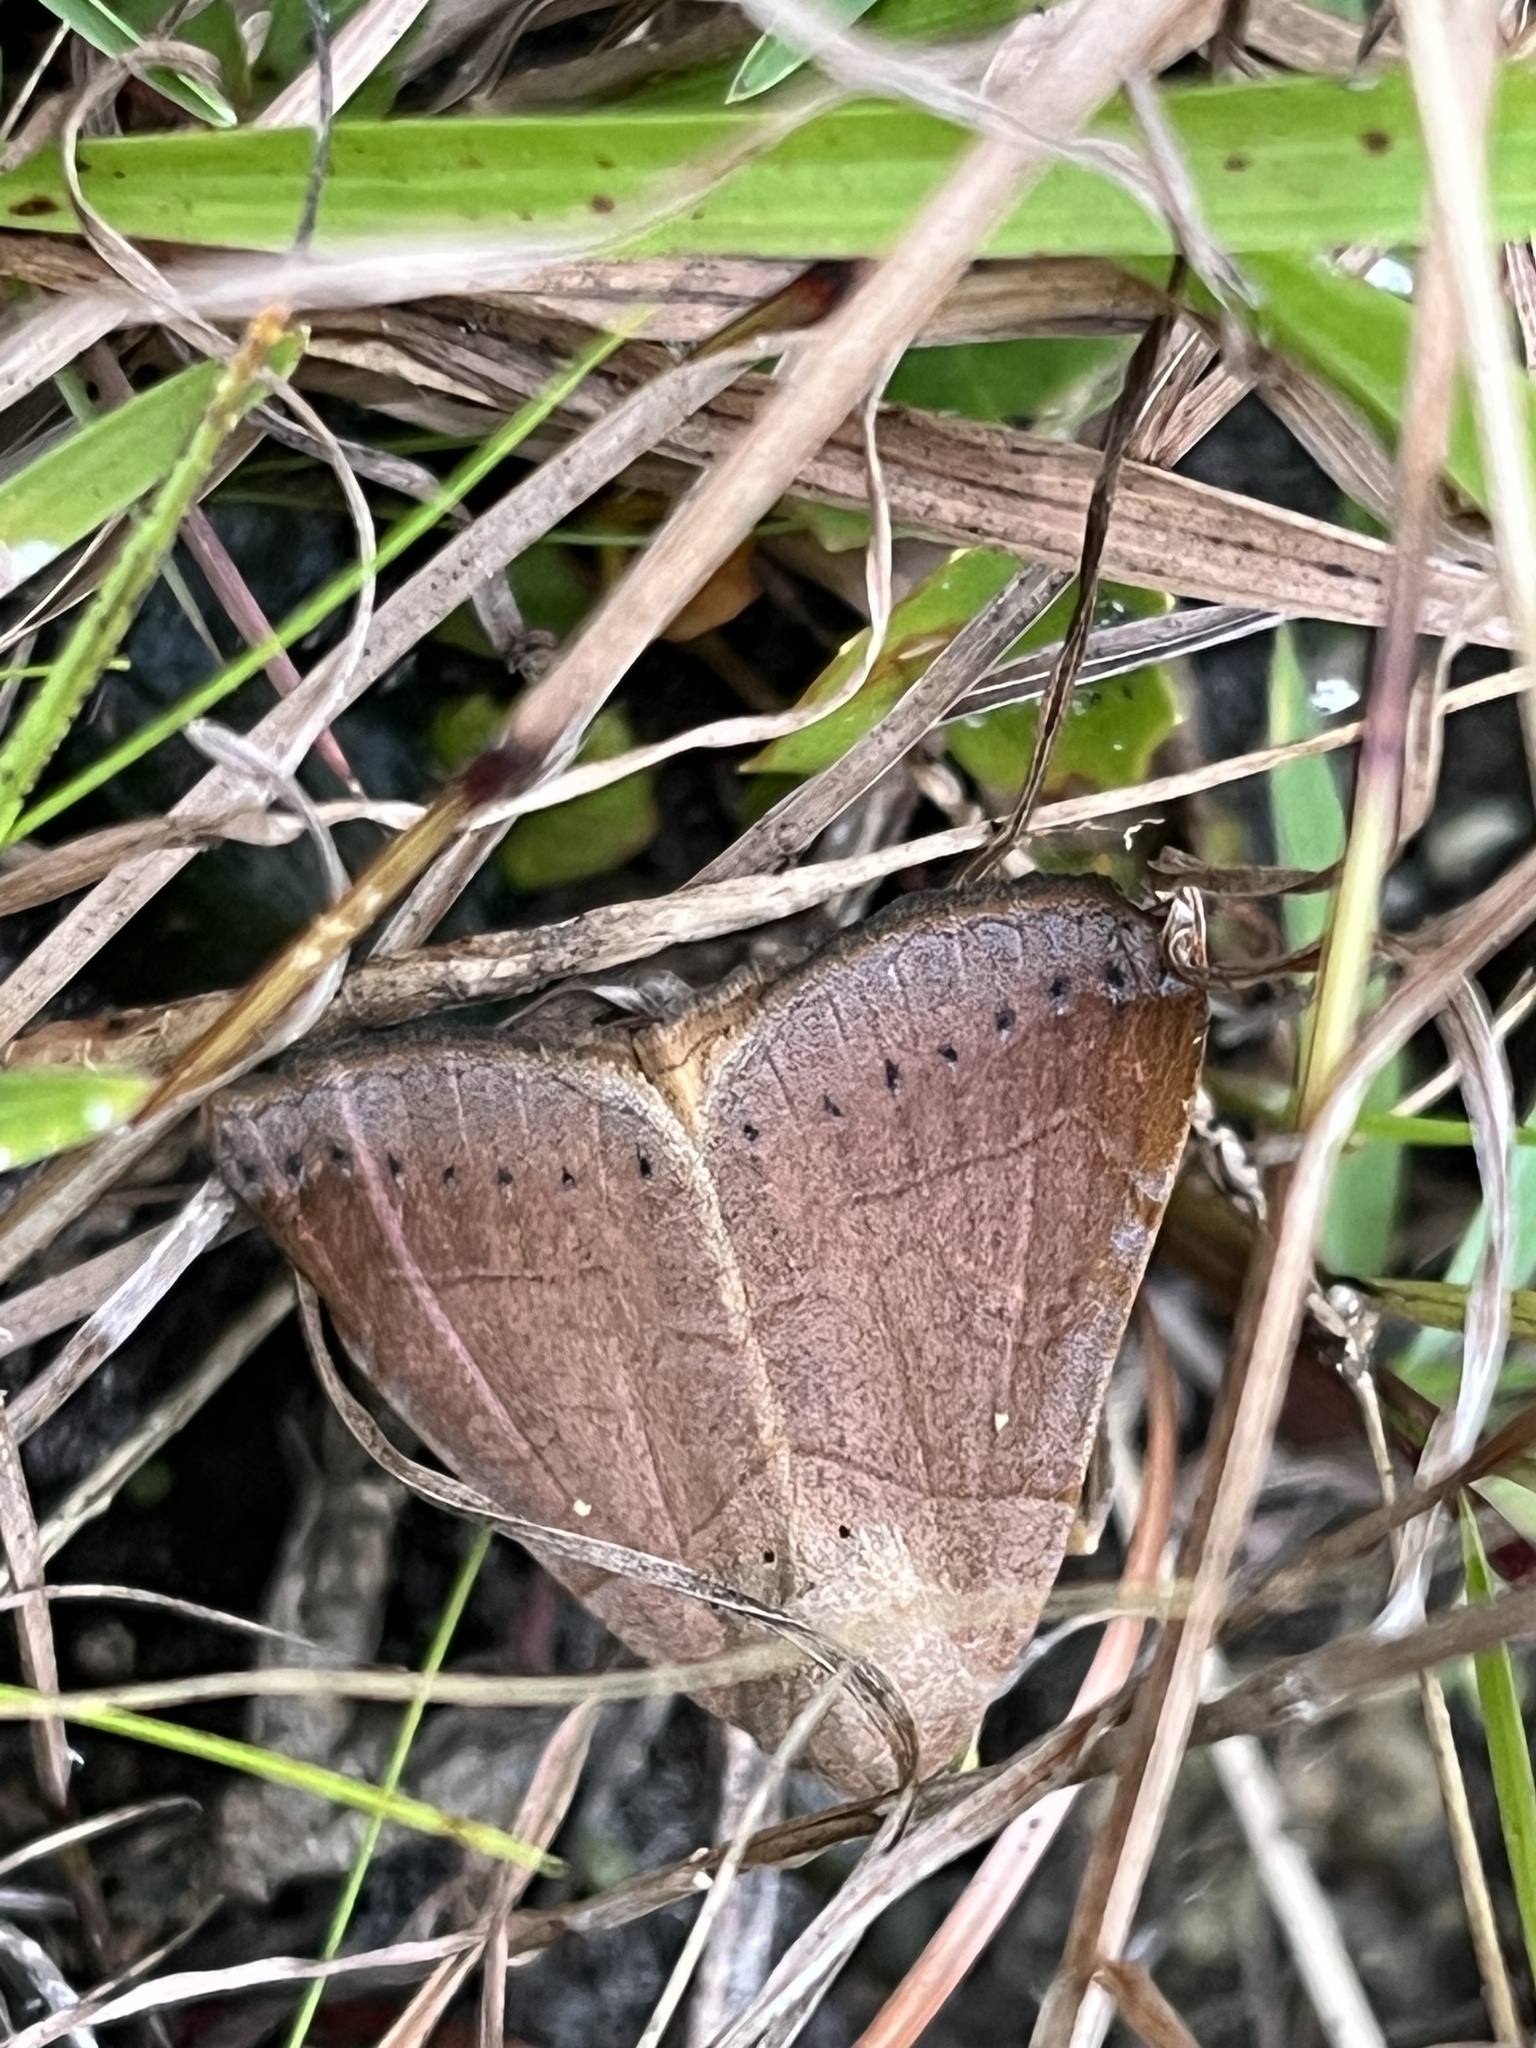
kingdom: Animalia
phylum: Arthropoda
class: Insecta
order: Lepidoptera
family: Erebidae
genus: Mocis
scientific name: Mocis cubana
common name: Cutworm moth
